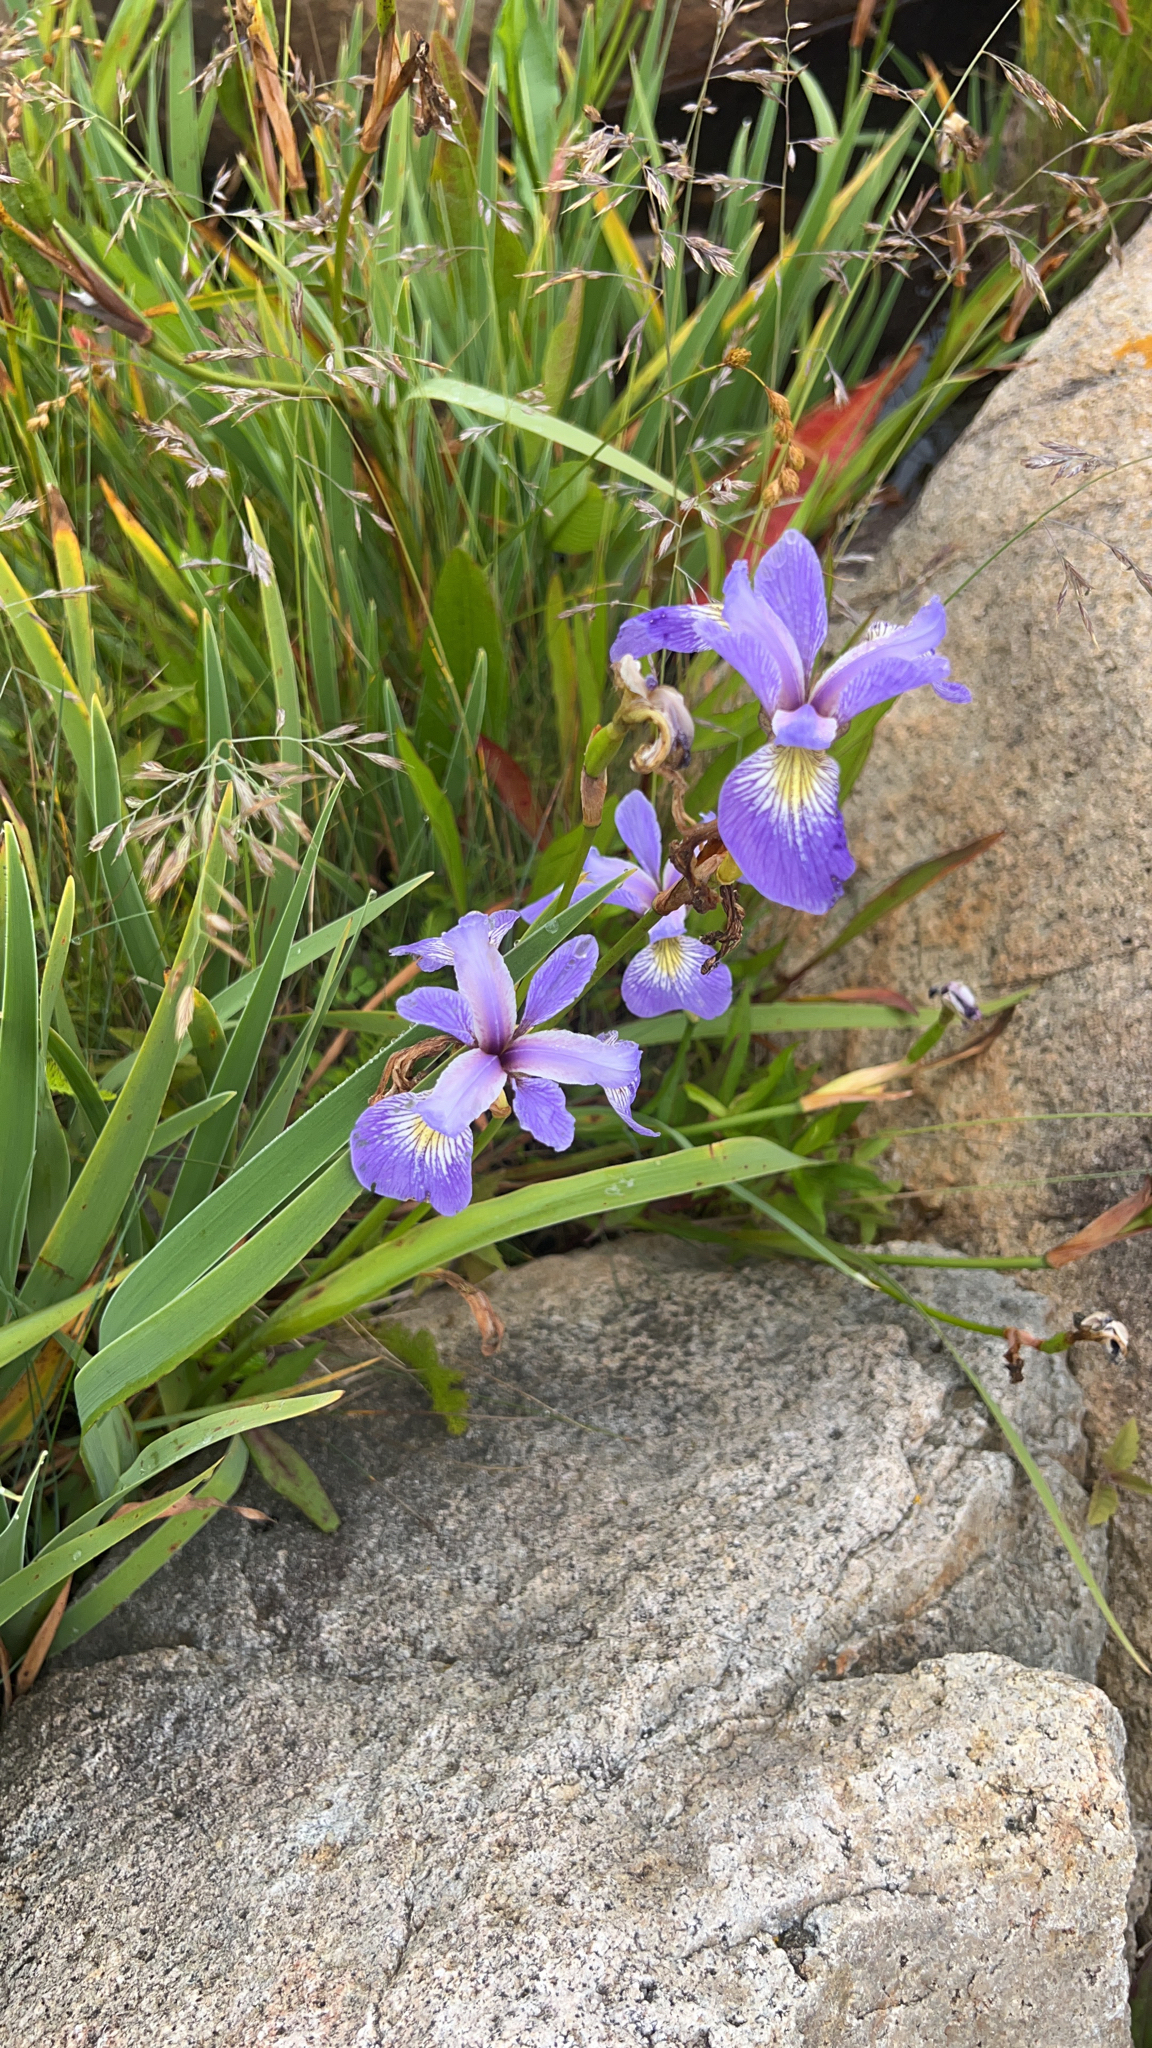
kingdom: Plantae
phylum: Tracheophyta
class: Liliopsida
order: Asparagales
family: Iridaceae
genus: Iris
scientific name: Iris versicolor
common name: Purple iris
